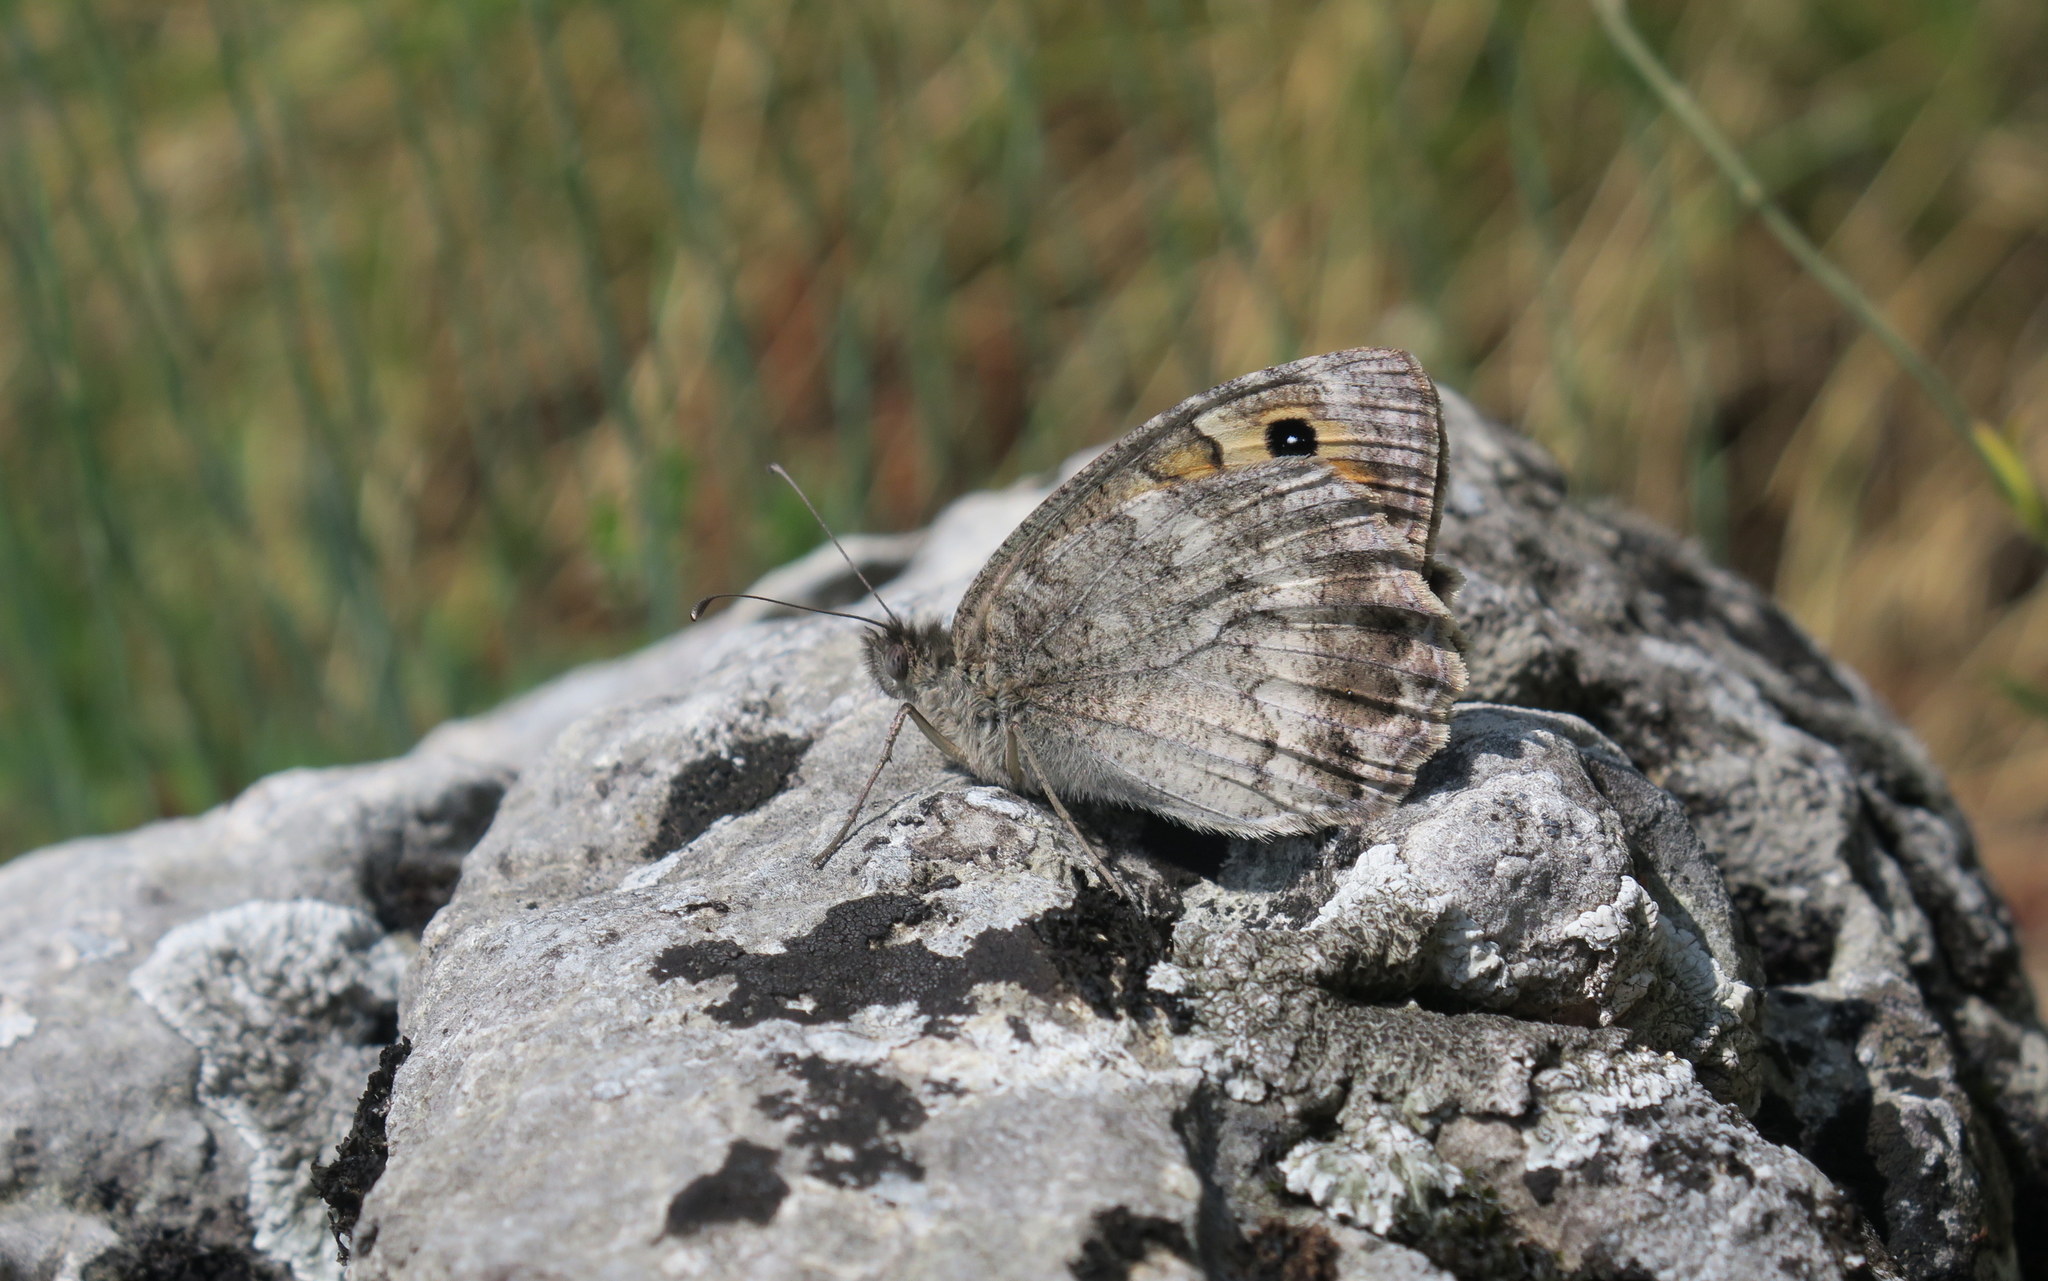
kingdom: Animalia
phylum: Arthropoda
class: Insecta
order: Lepidoptera
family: Nymphalidae
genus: Pseudochazara
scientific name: Pseudochazara orestes
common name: Dils’ grayling
